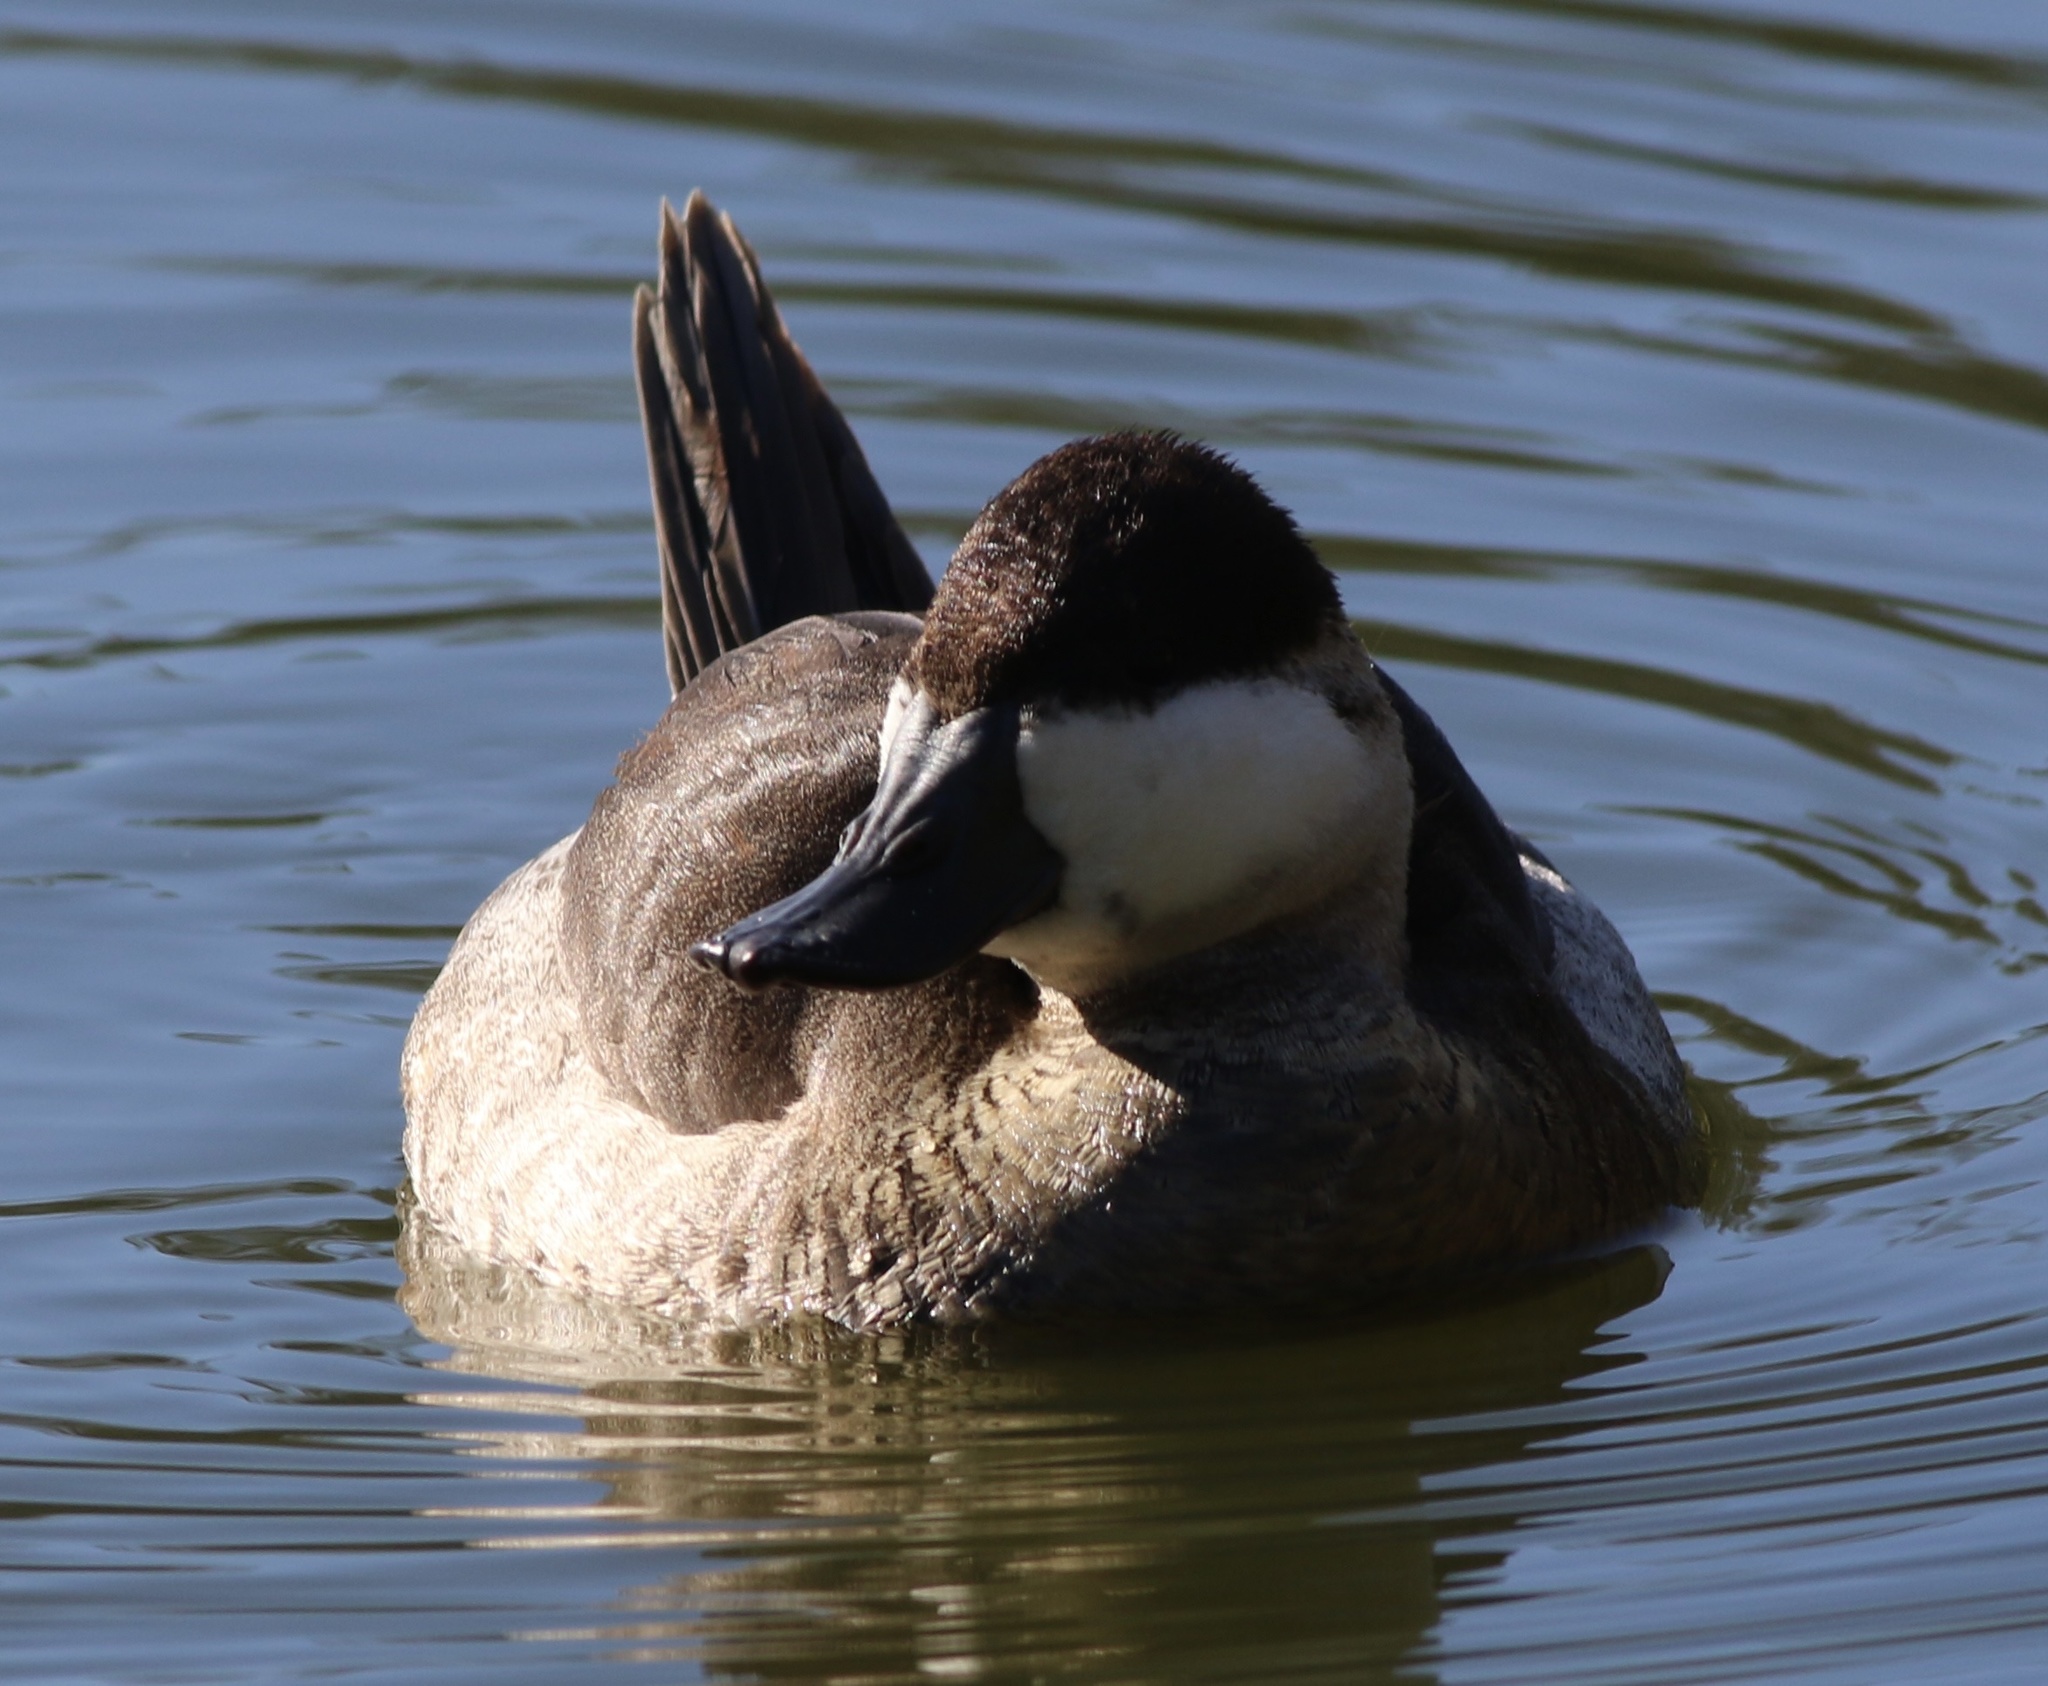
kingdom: Animalia
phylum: Chordata
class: Aves
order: Anseriformes
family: Anatidae
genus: Oxyura
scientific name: Oxyura jamaicensis
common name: Ruddy duck
